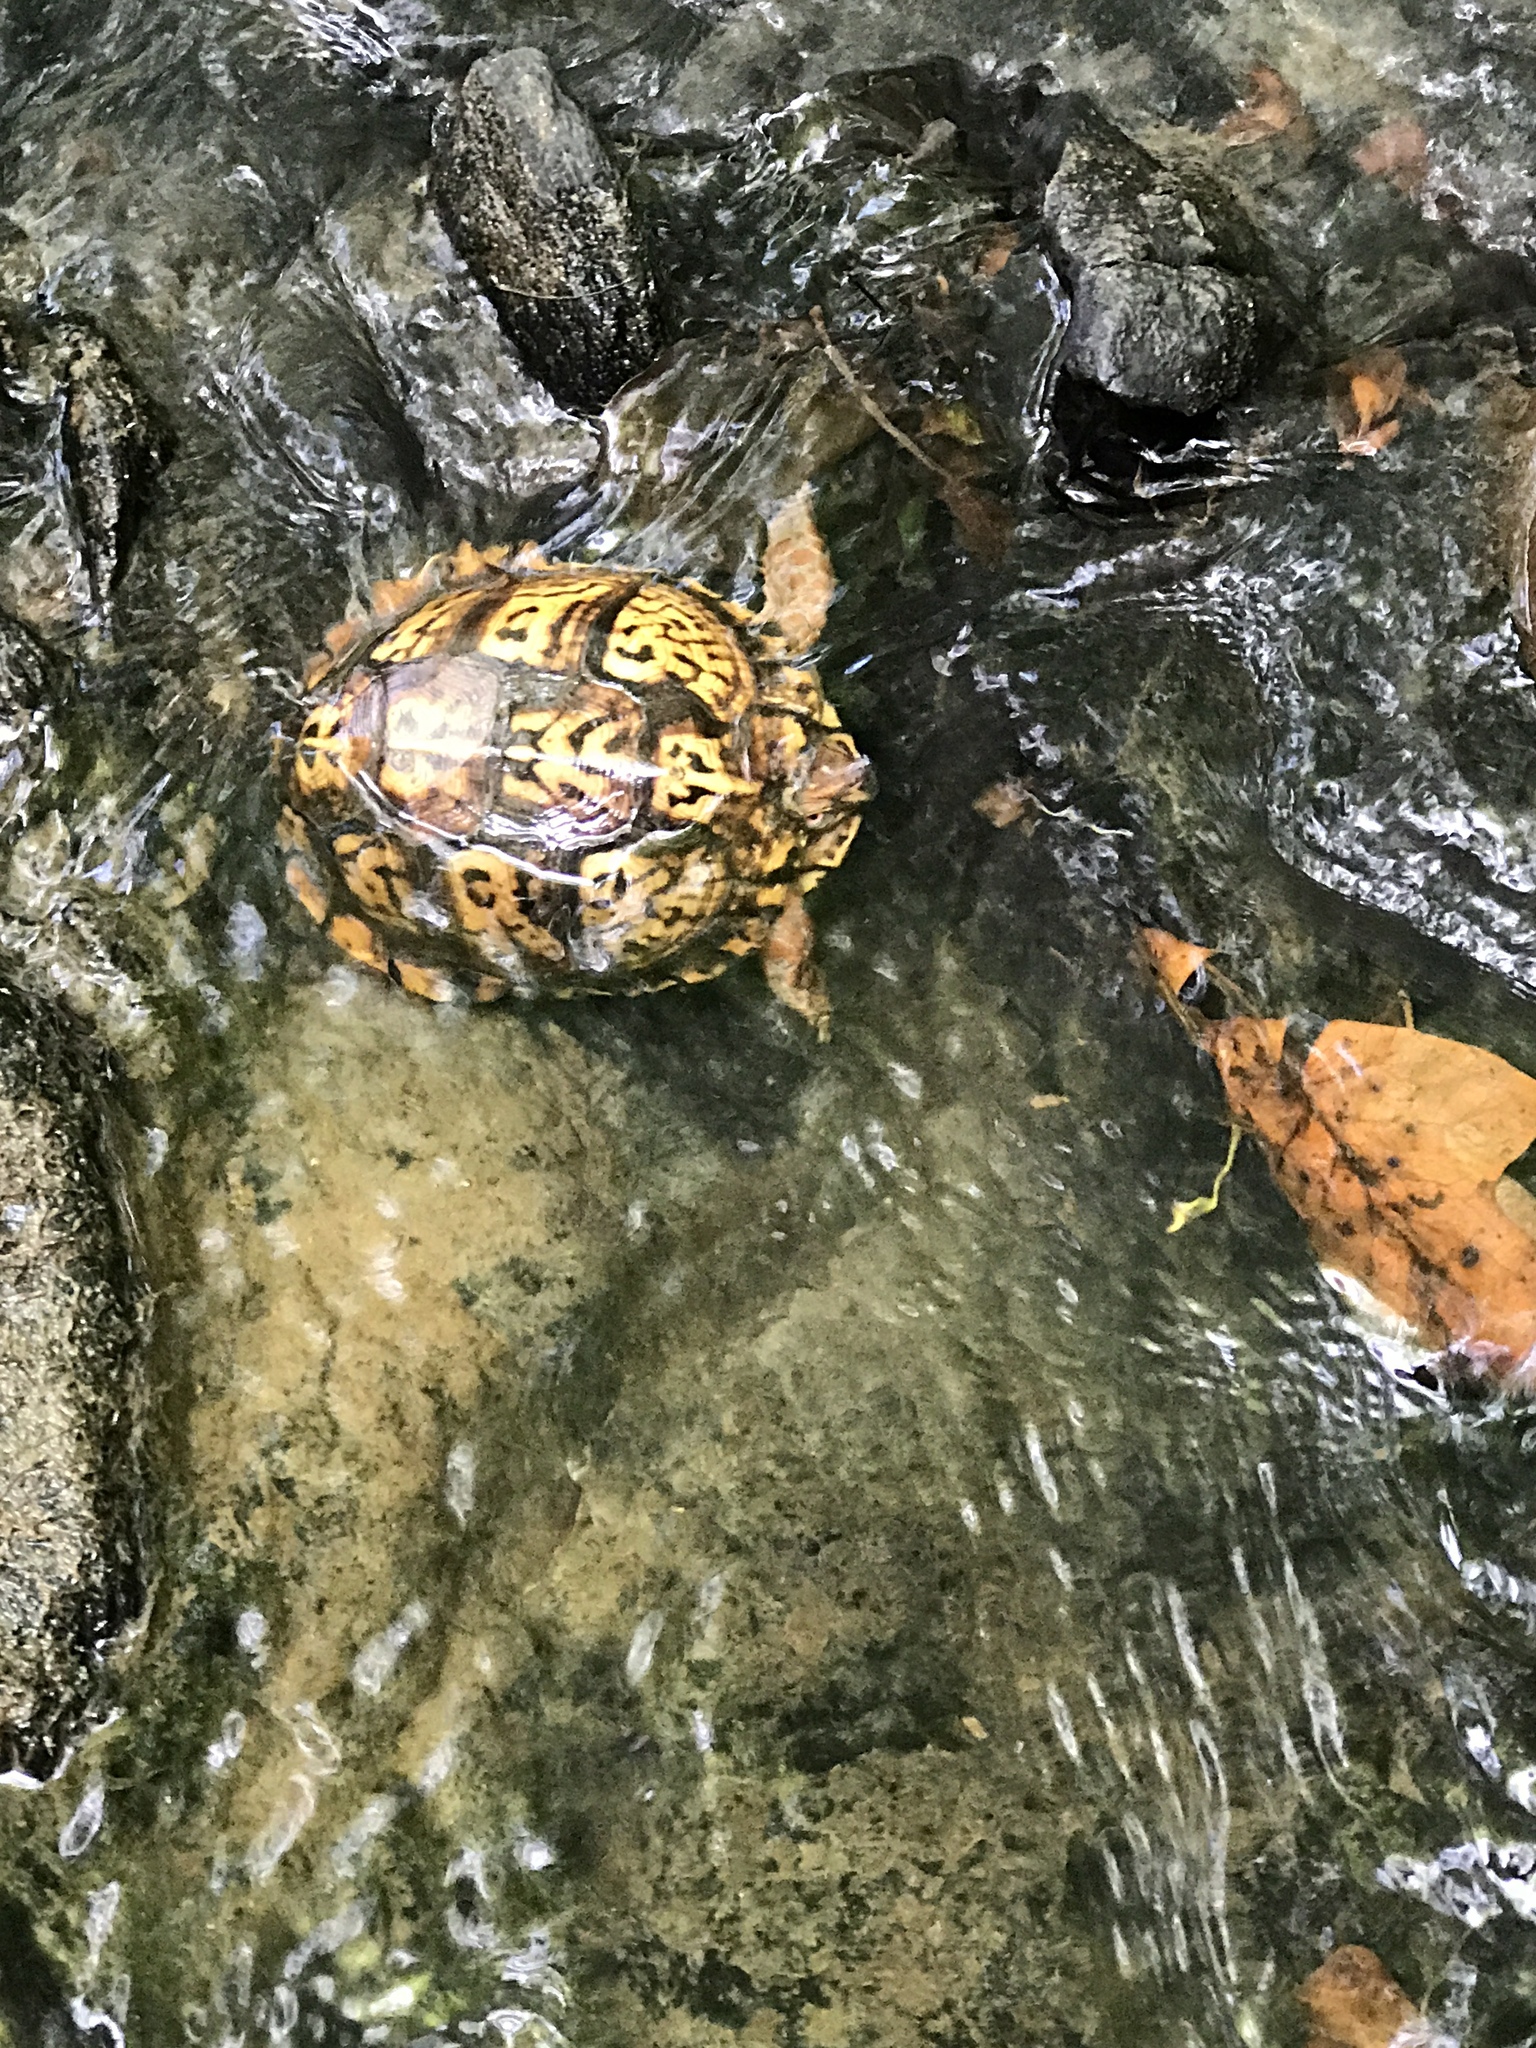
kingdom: Animalia
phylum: Chordata
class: Testudines
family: Emydidae
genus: Terrapene
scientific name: Terrapene carolina
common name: Common box turtle
